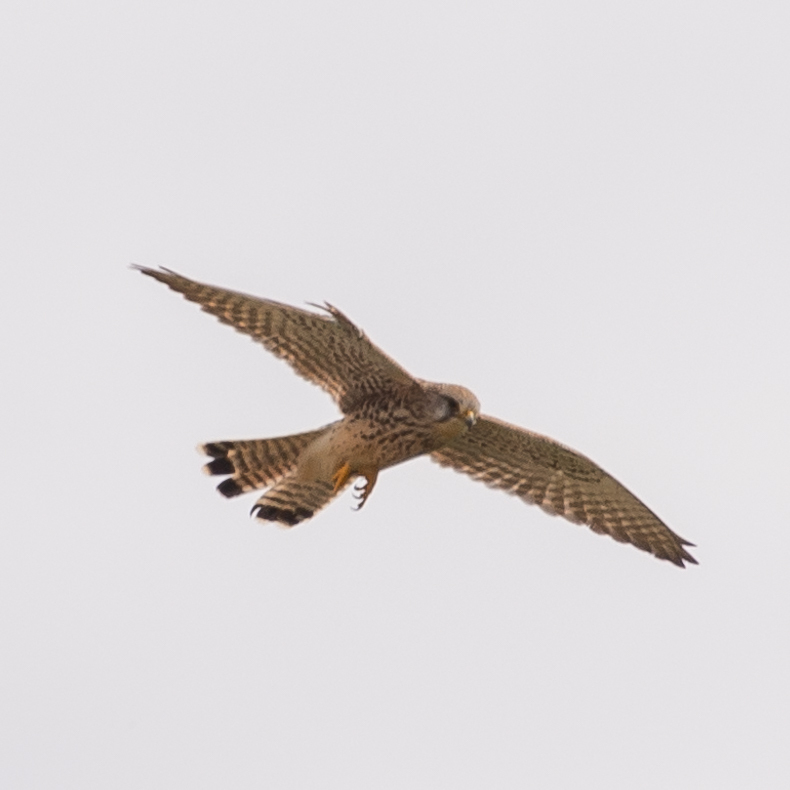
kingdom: Animalia
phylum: Chordata
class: Aves
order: Falconiformes
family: Falconidae
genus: Falco
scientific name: Falco tinnunculus
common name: Common kestrel
